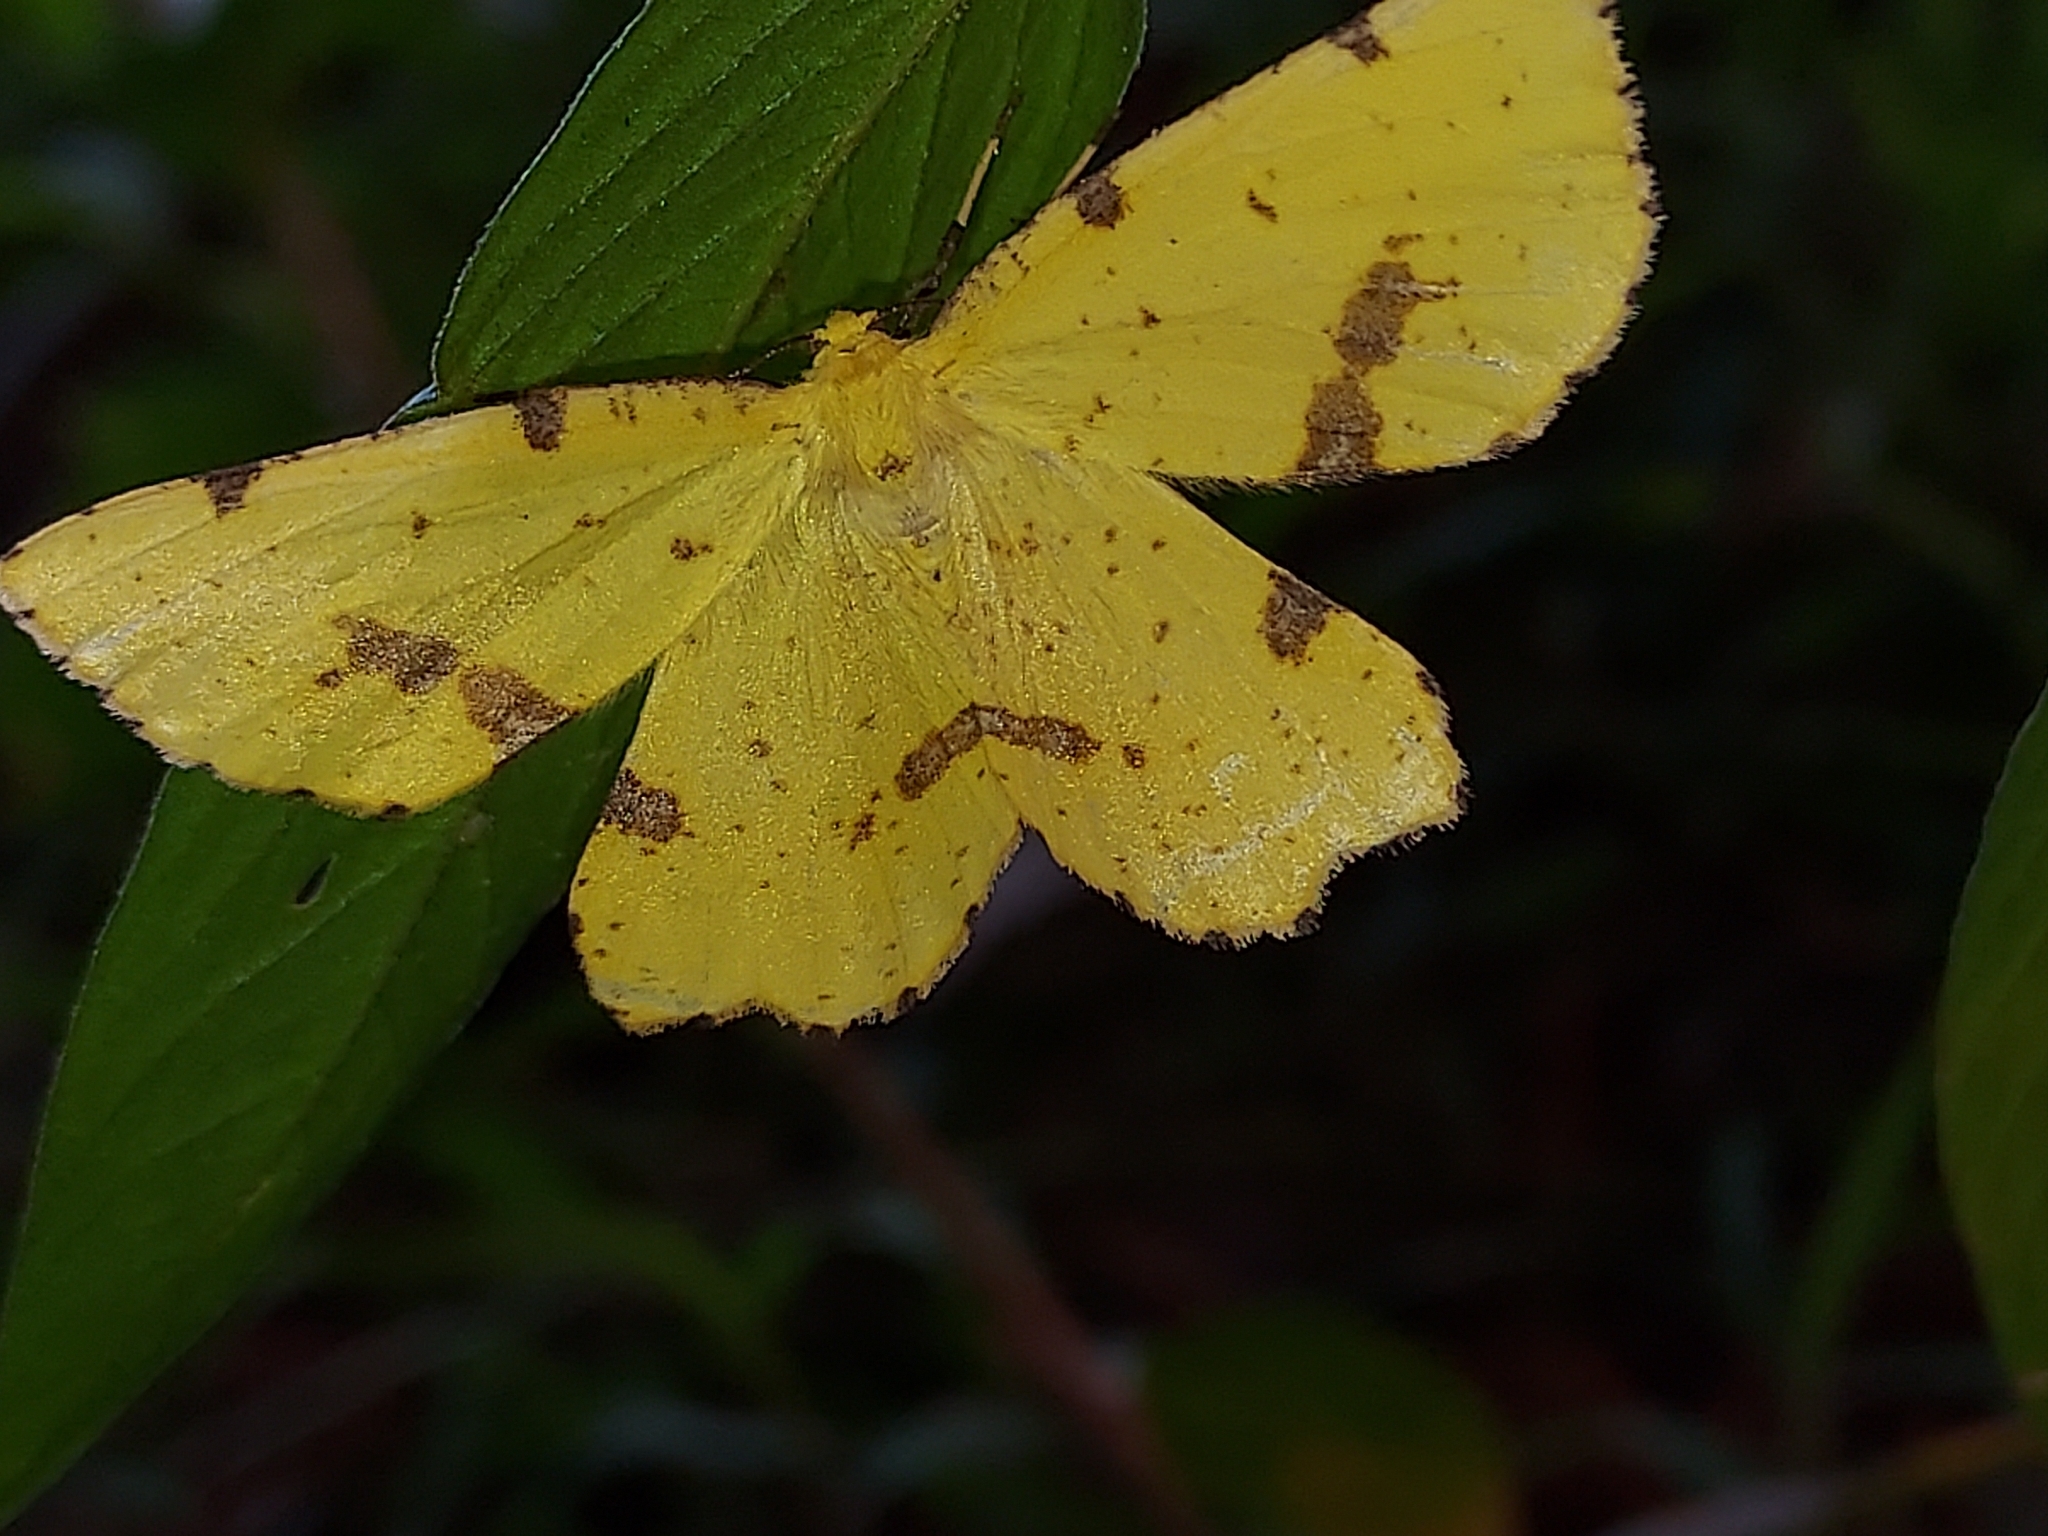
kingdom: Animalia
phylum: Arthropoda
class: Insecta
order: Lepidoptera
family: Geometridae
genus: Xanthotype
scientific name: Xanthotype
